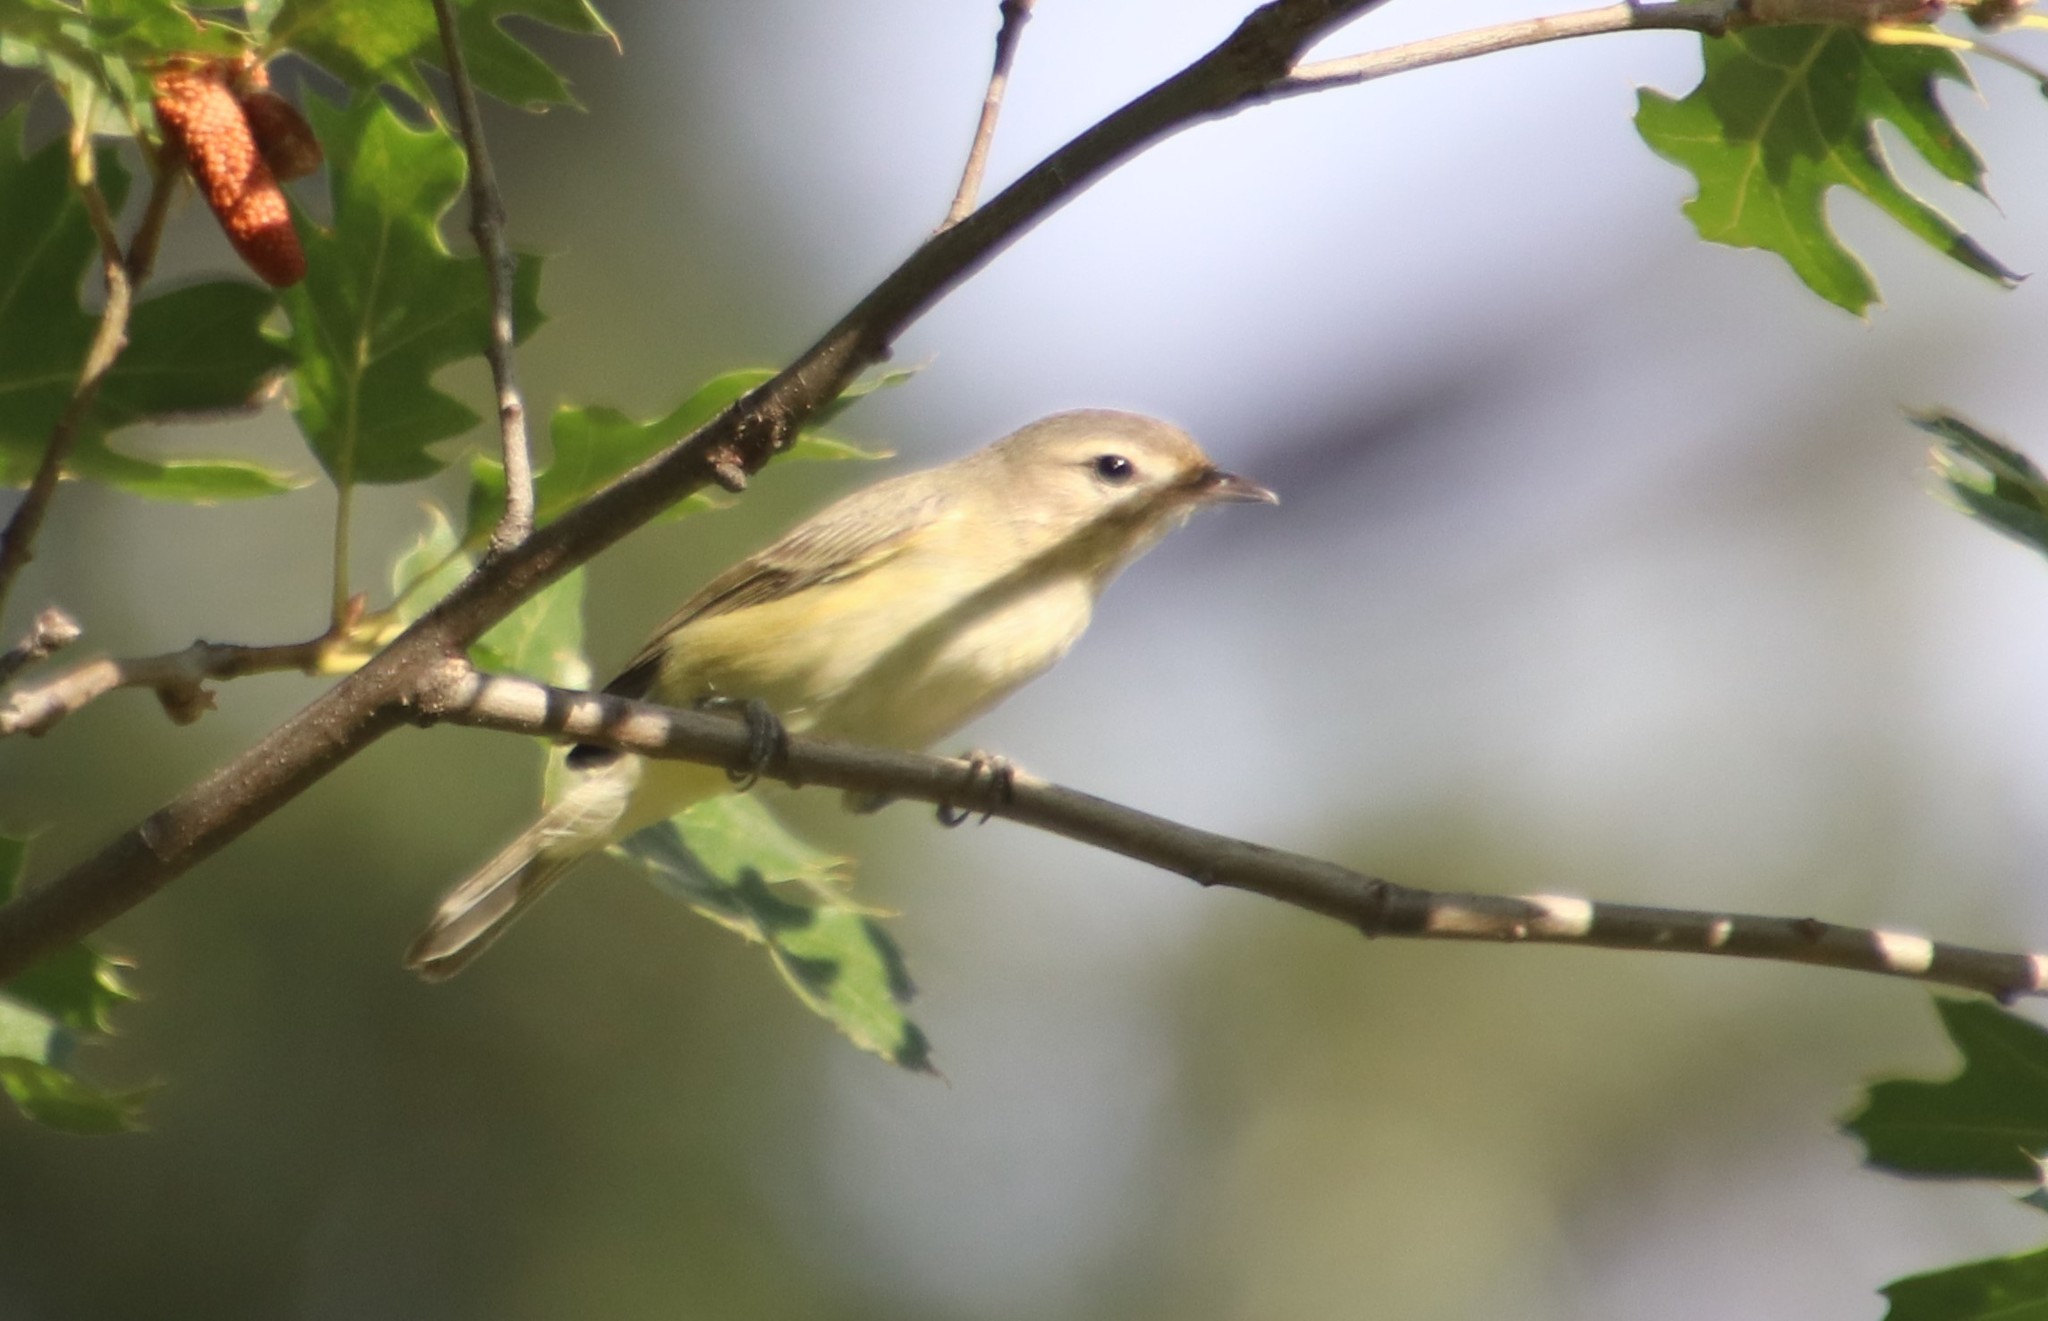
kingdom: Animalia
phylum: Chordata
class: Aves
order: Passeriformes
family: Vireonidae
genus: Vireo
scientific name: Vireo gilvus
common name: Warbling vireo
